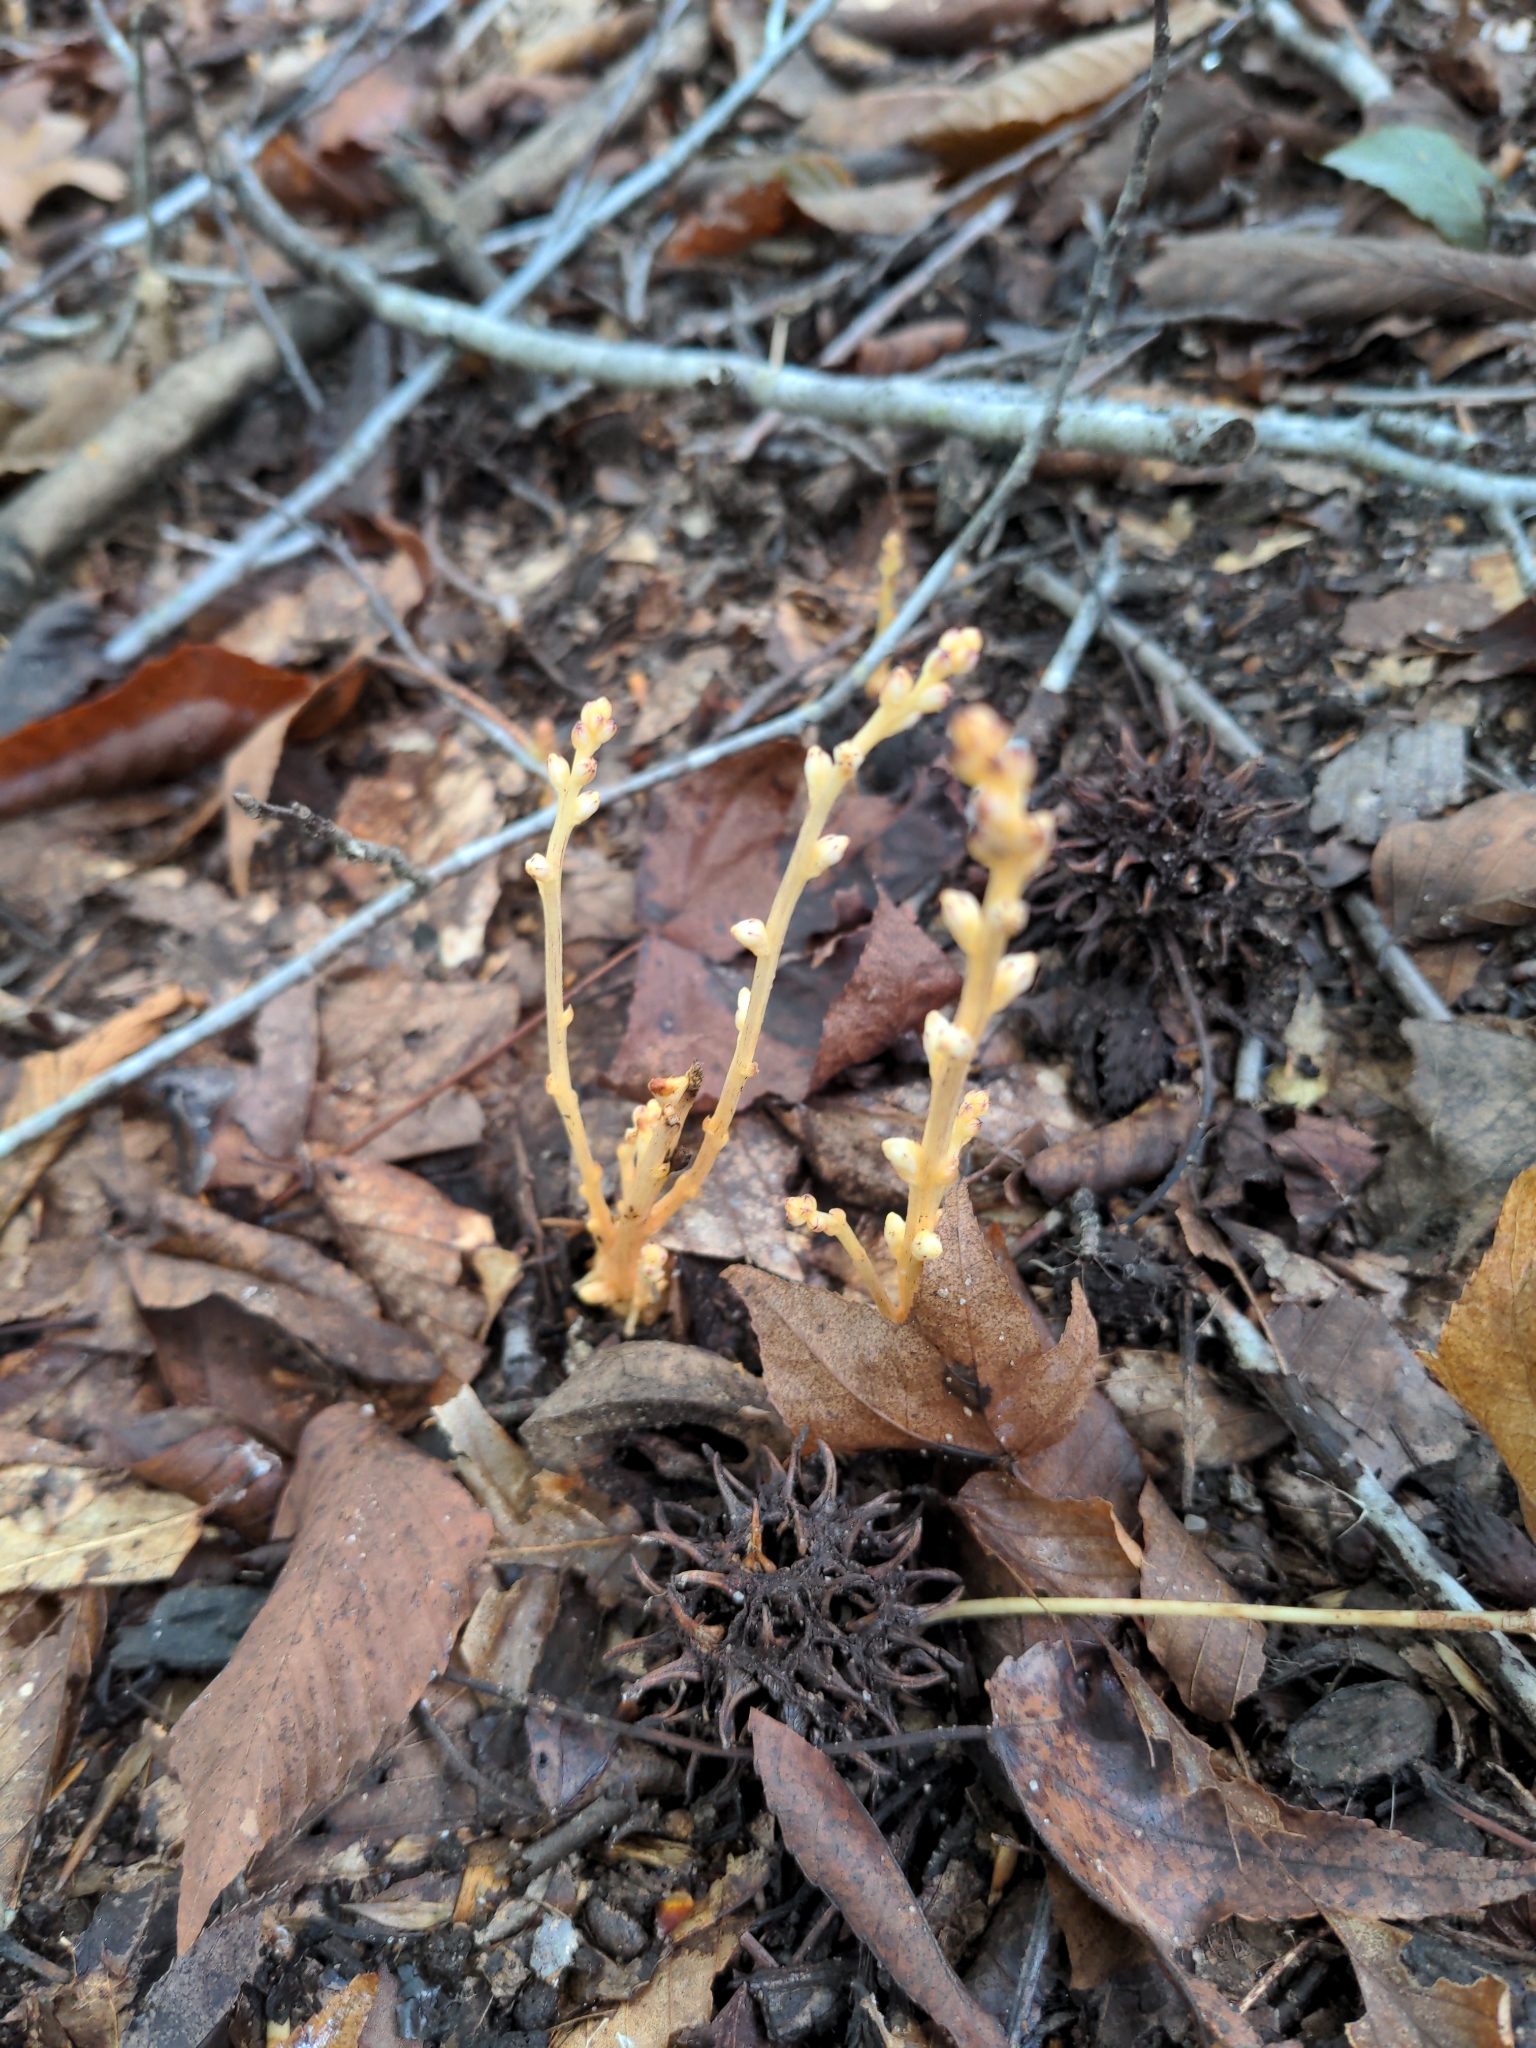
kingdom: Plantae
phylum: Tracheophyta
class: Magnoliopsida
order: Lamiales
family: Orobanchaceae
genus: Epifagus
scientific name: Epifagus virginiana
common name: Beechdrops
